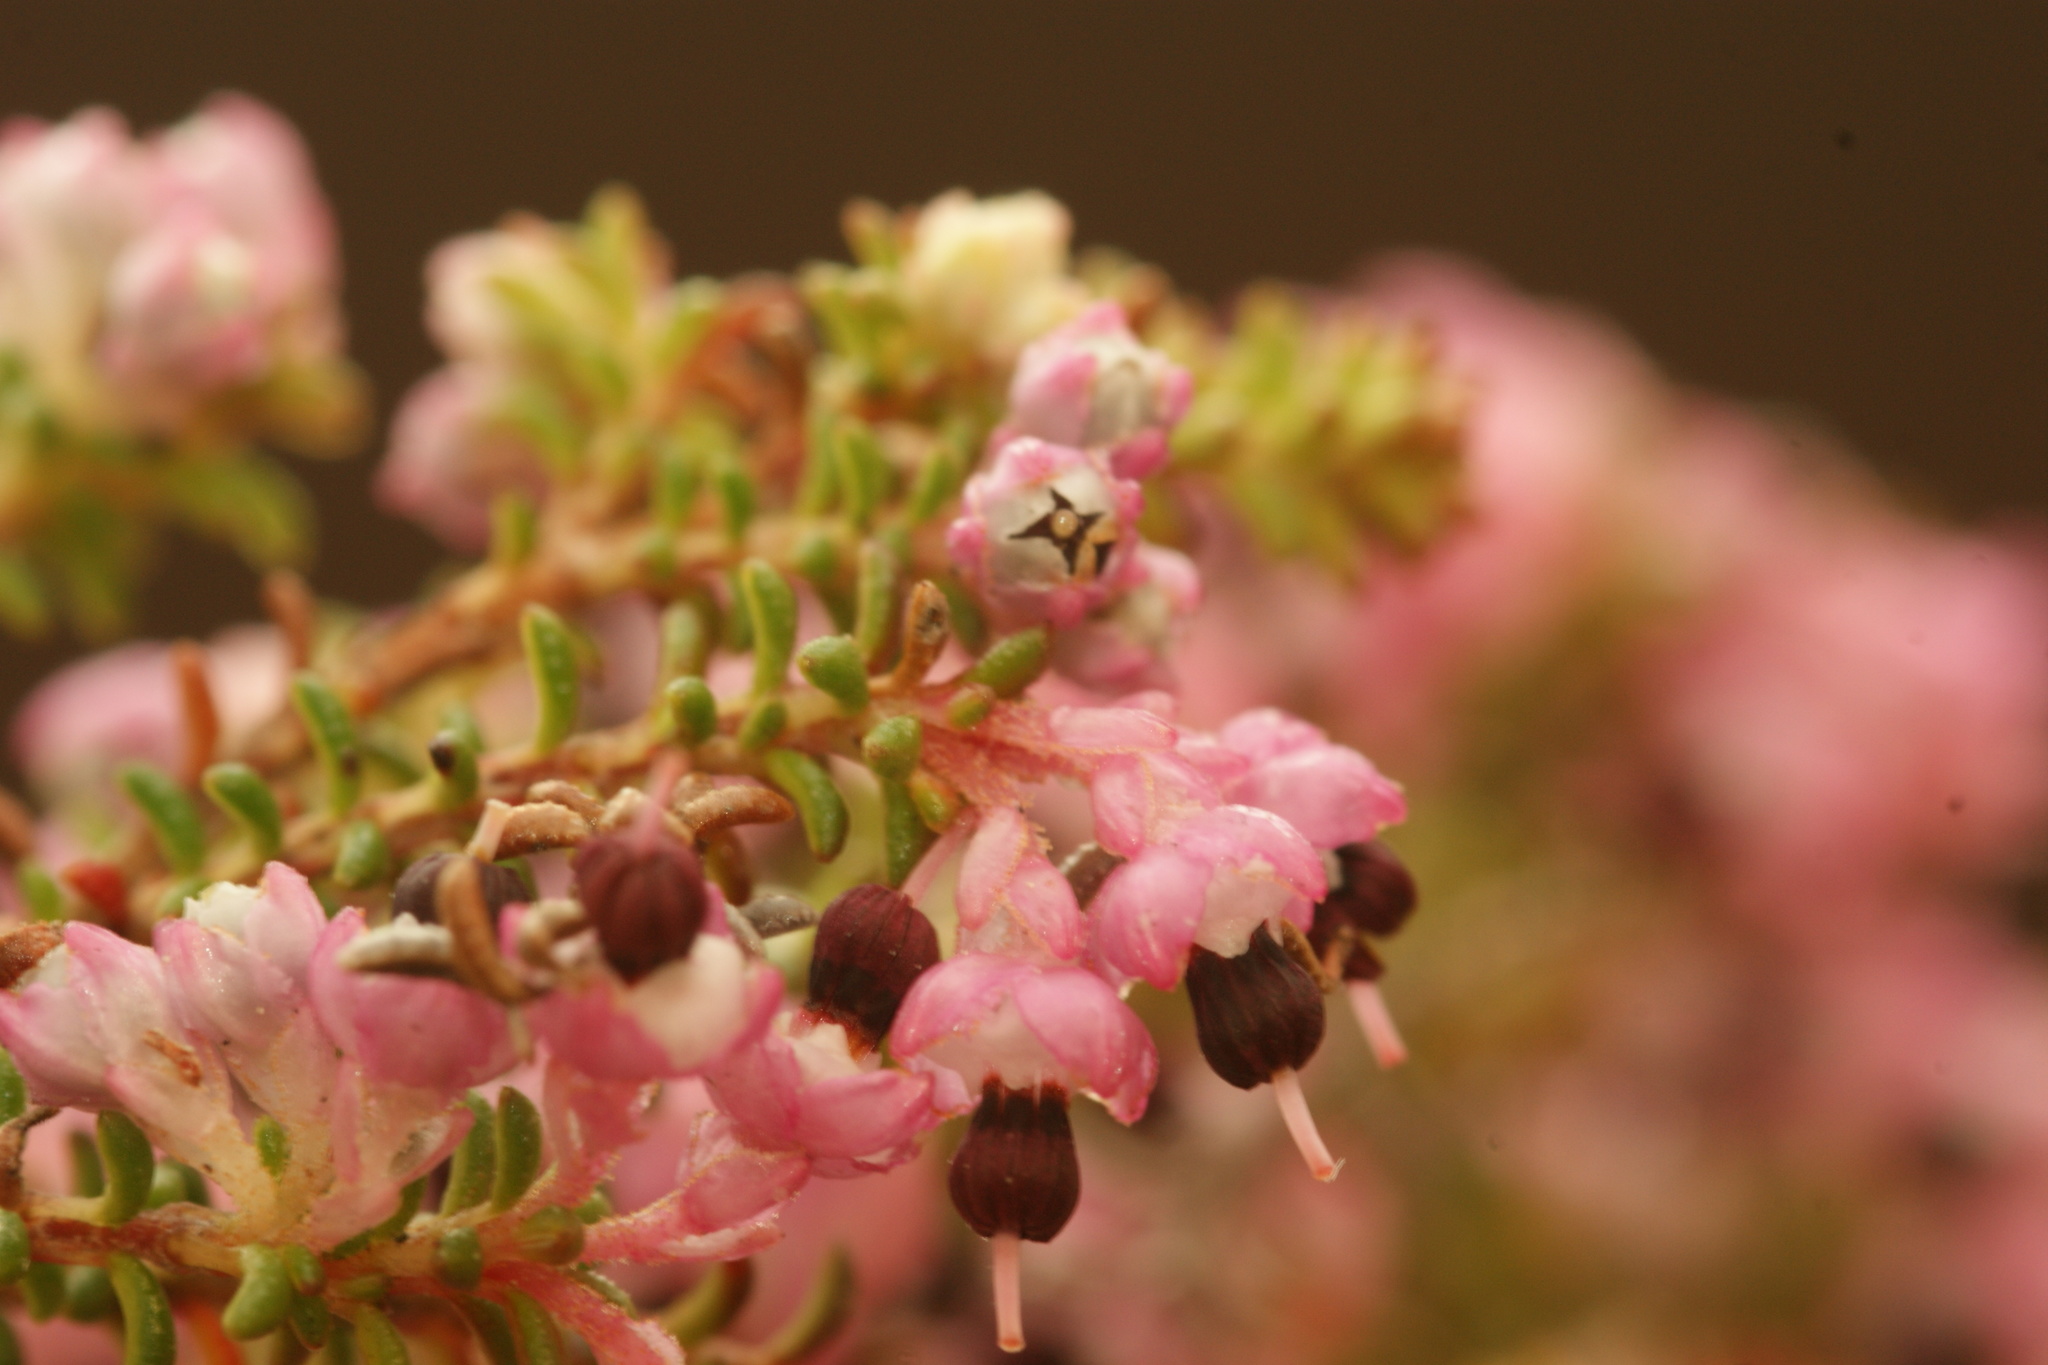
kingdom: Plantae
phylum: Tracheophyta
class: Magnoliopsida
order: Ericales
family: Ericaceae
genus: Erica
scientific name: Erica placentiflora
